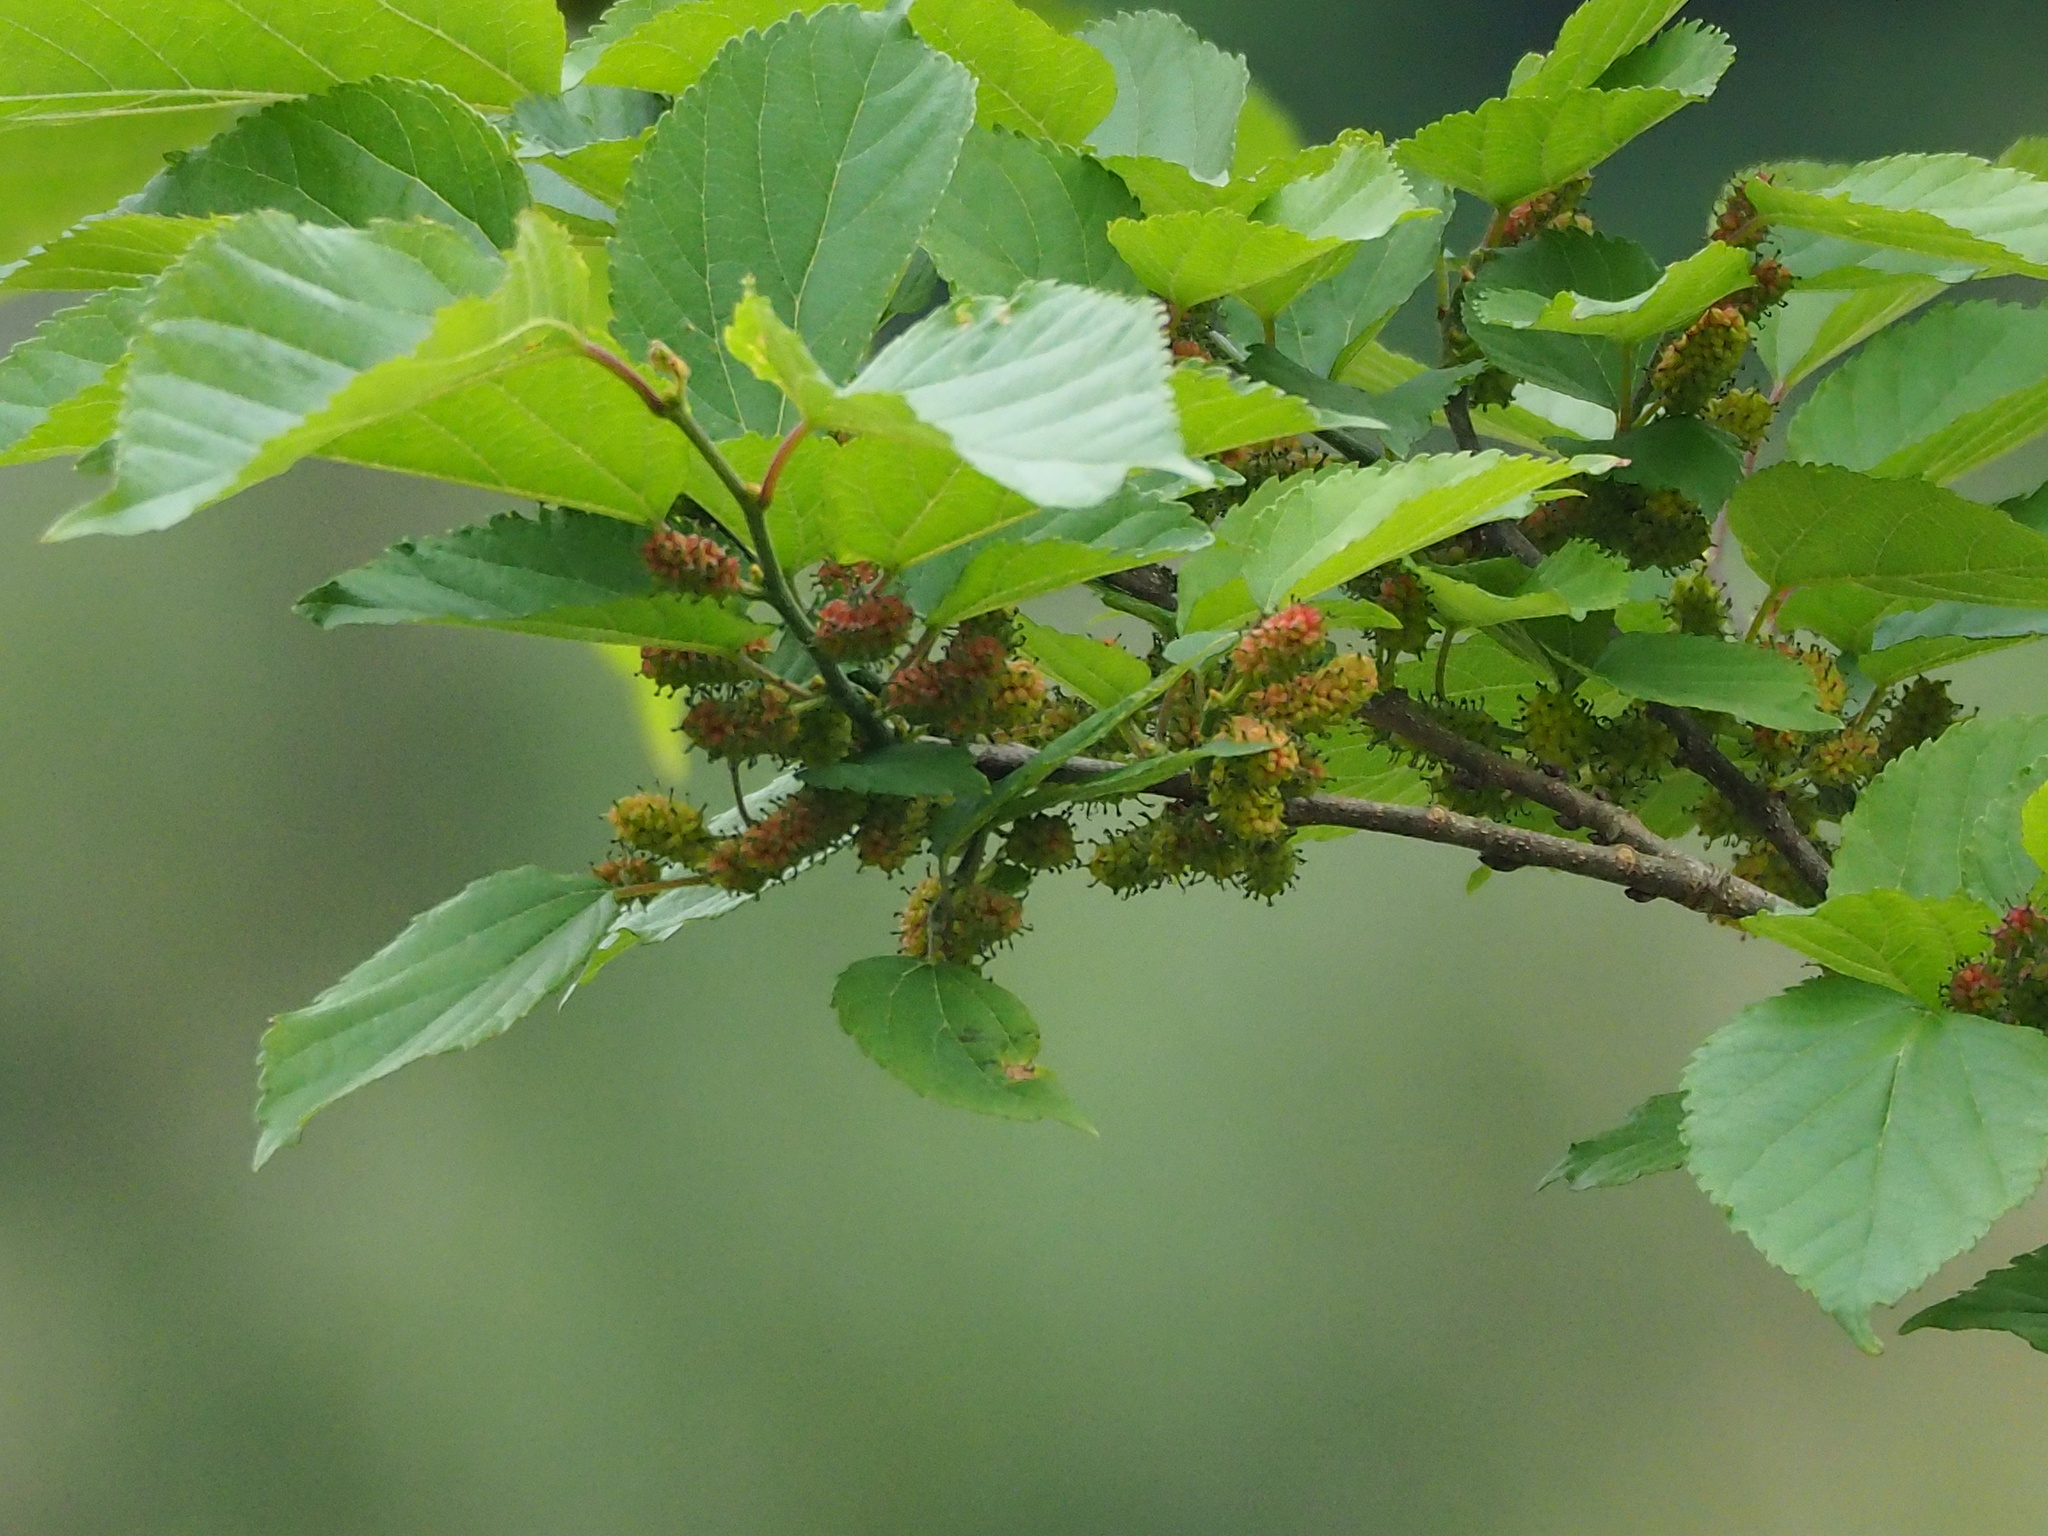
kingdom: Plantae
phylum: Tracheophyta
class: Magnoliopsida
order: Rosales
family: Moraceae
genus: Morus
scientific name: Morus indica
